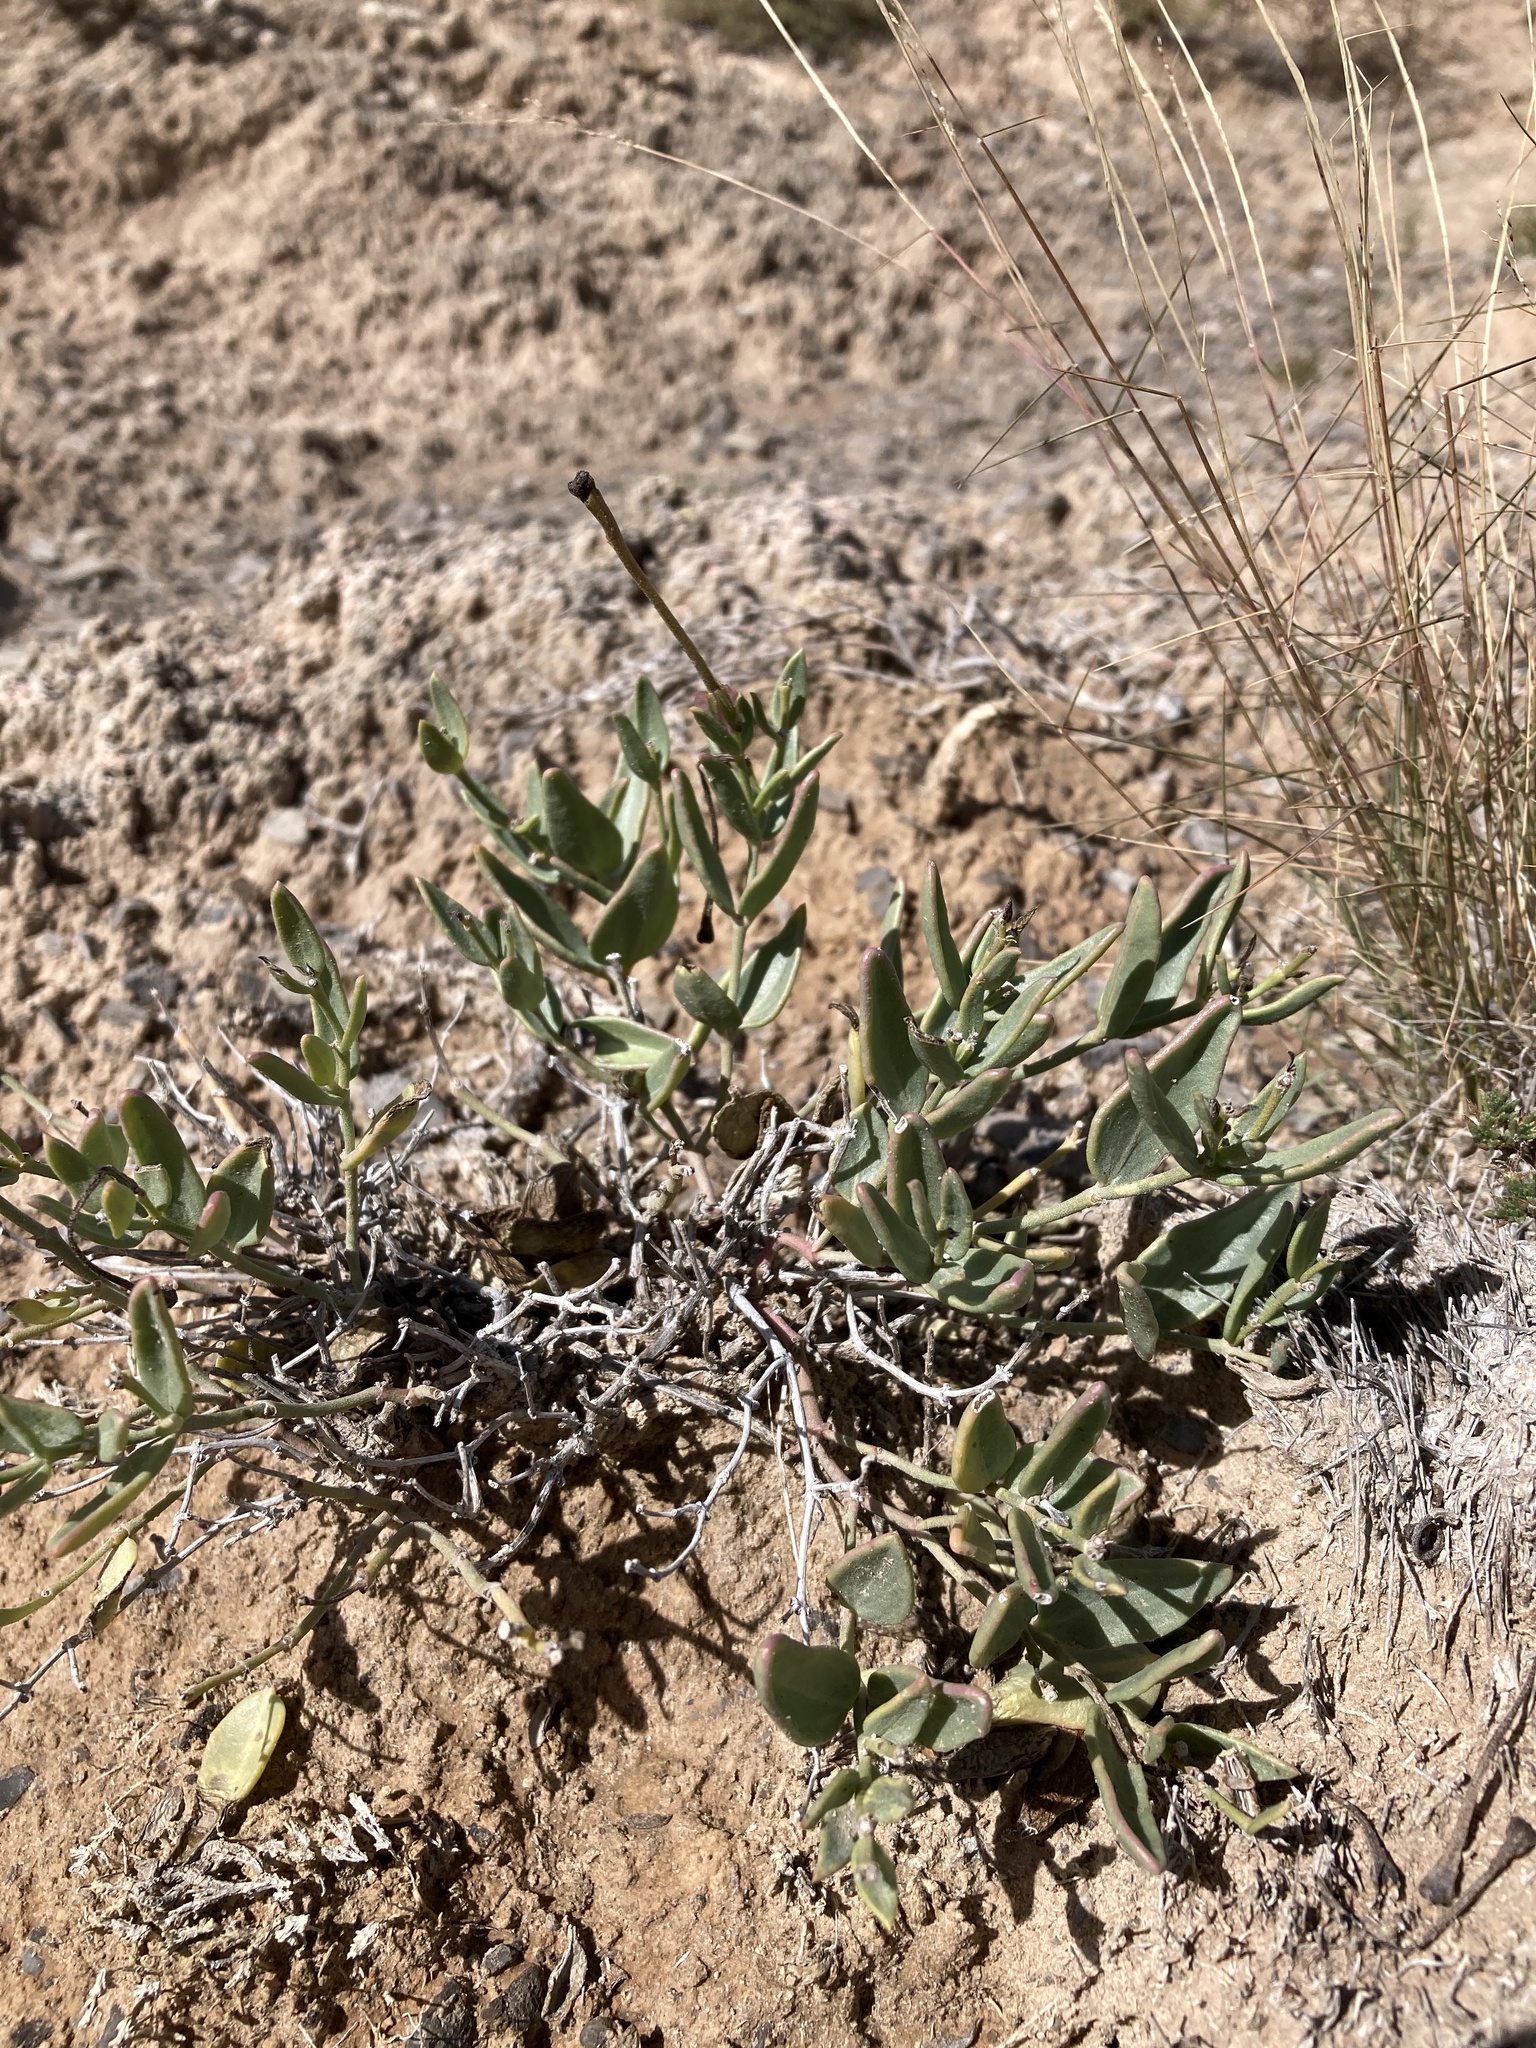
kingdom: Plantae
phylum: Tracheophyta
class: Magnoliopsida
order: Caryophyllales
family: Nyctaginaceae
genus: Acleisanthes
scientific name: Acleisanthes lanceolata
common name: Gypsum moonpod
